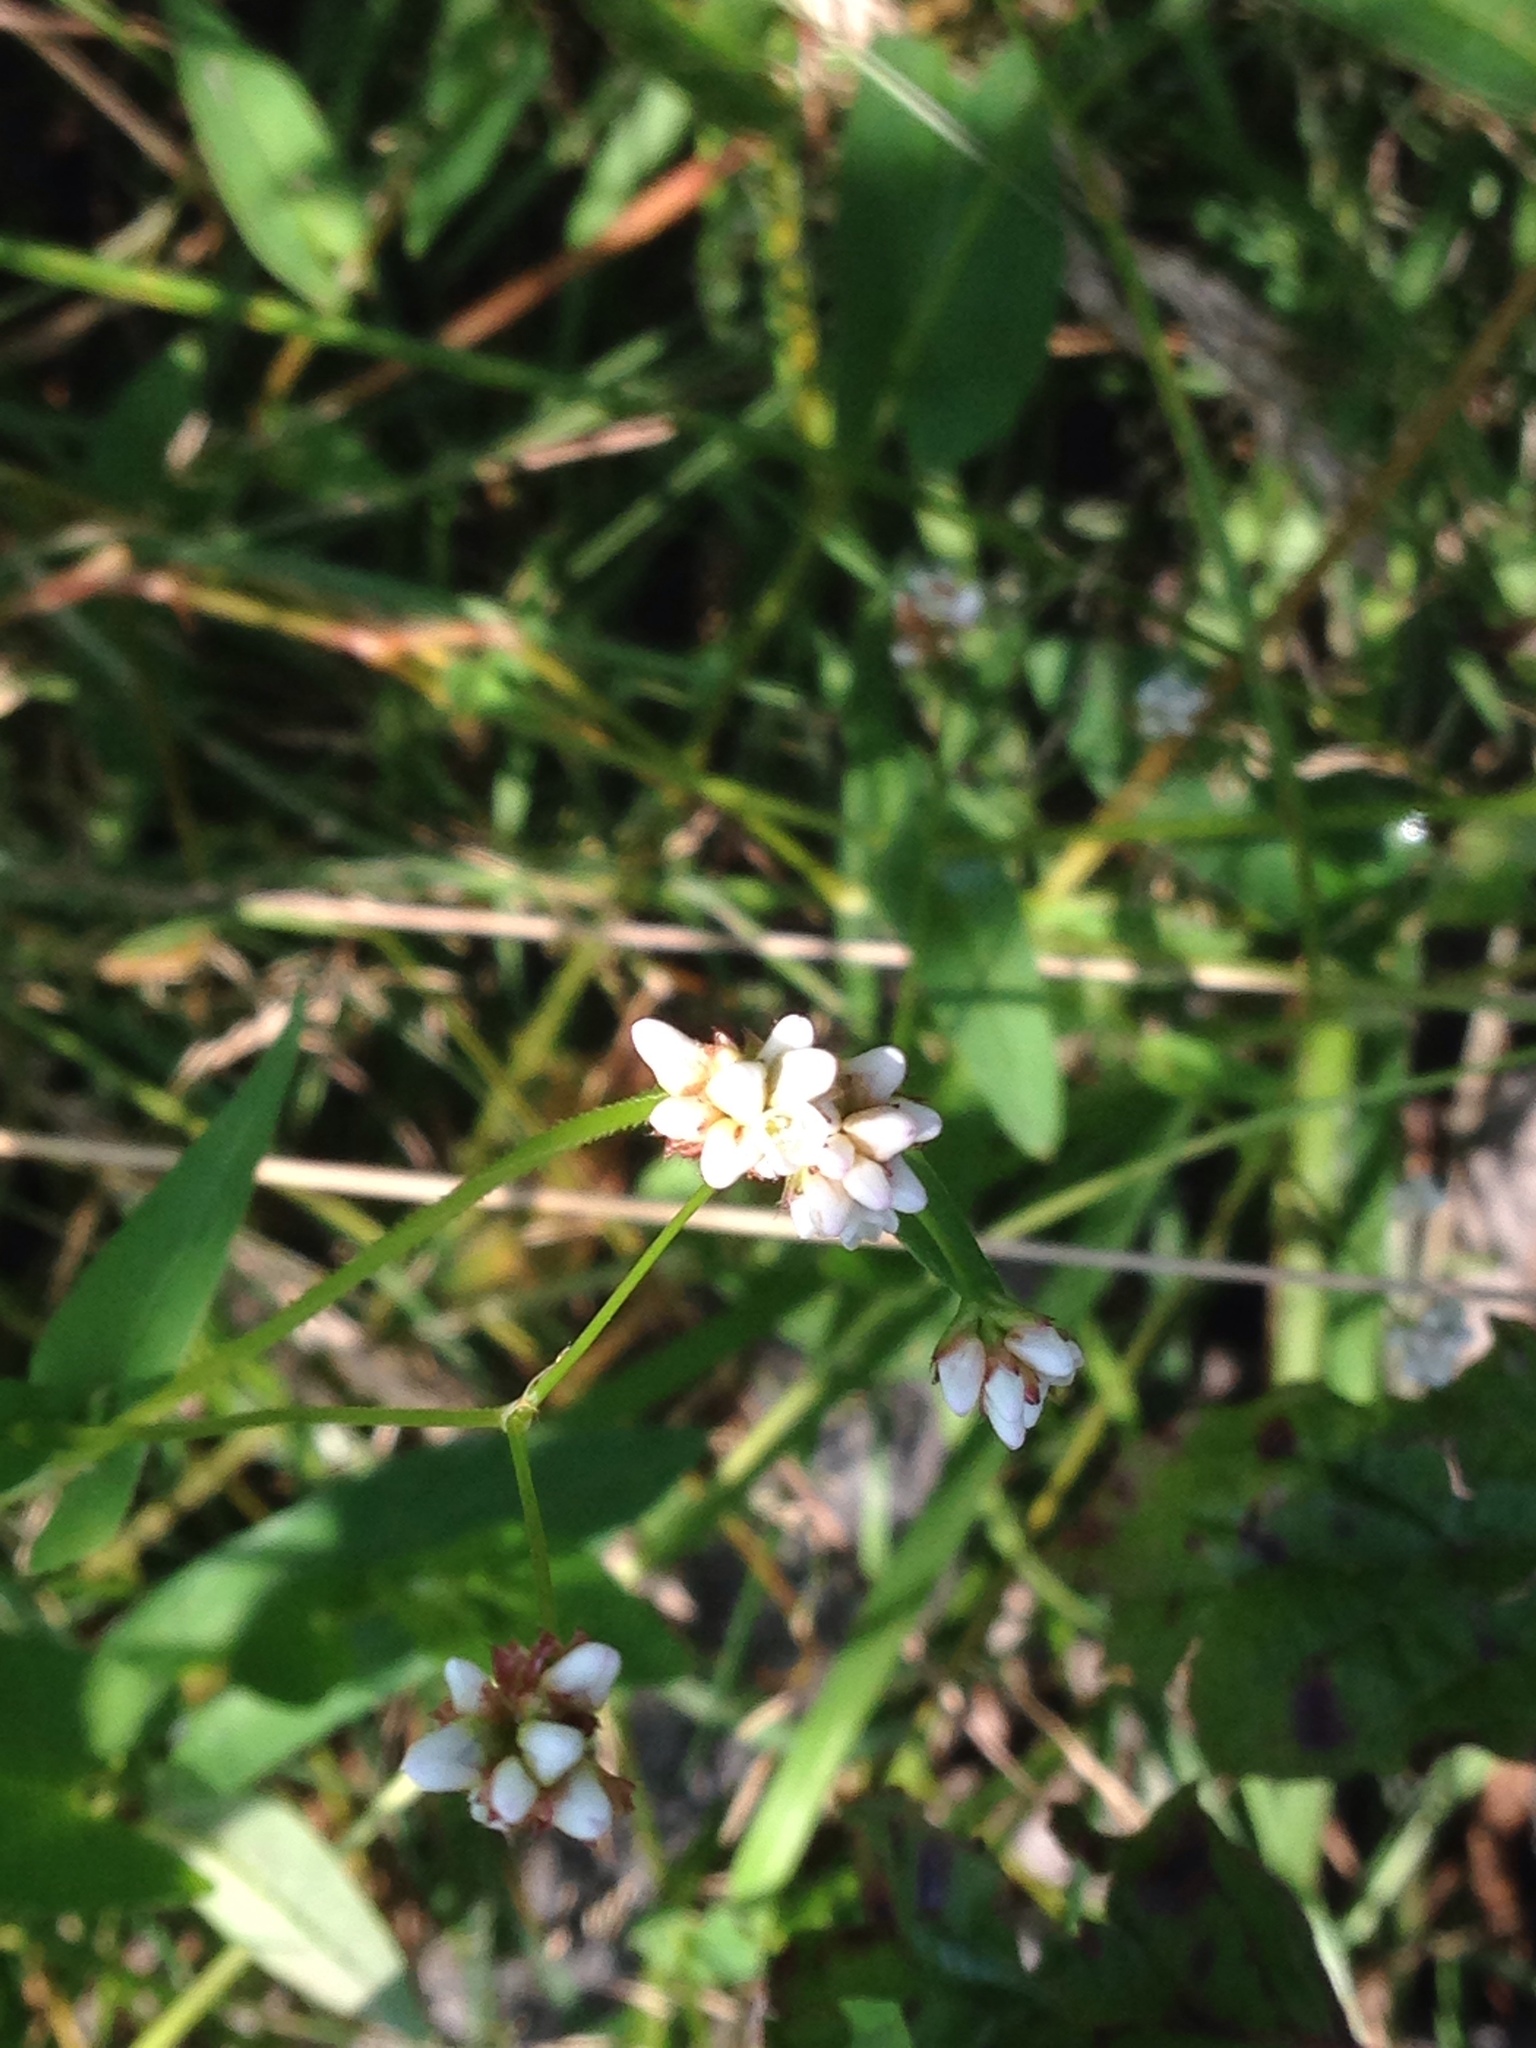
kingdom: Plantae
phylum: Tracheophyta
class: Magnoliopsida
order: Caryophyllales
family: Polygonaceae
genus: Persicaria
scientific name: Persicaria sagittata
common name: American tearthumb
